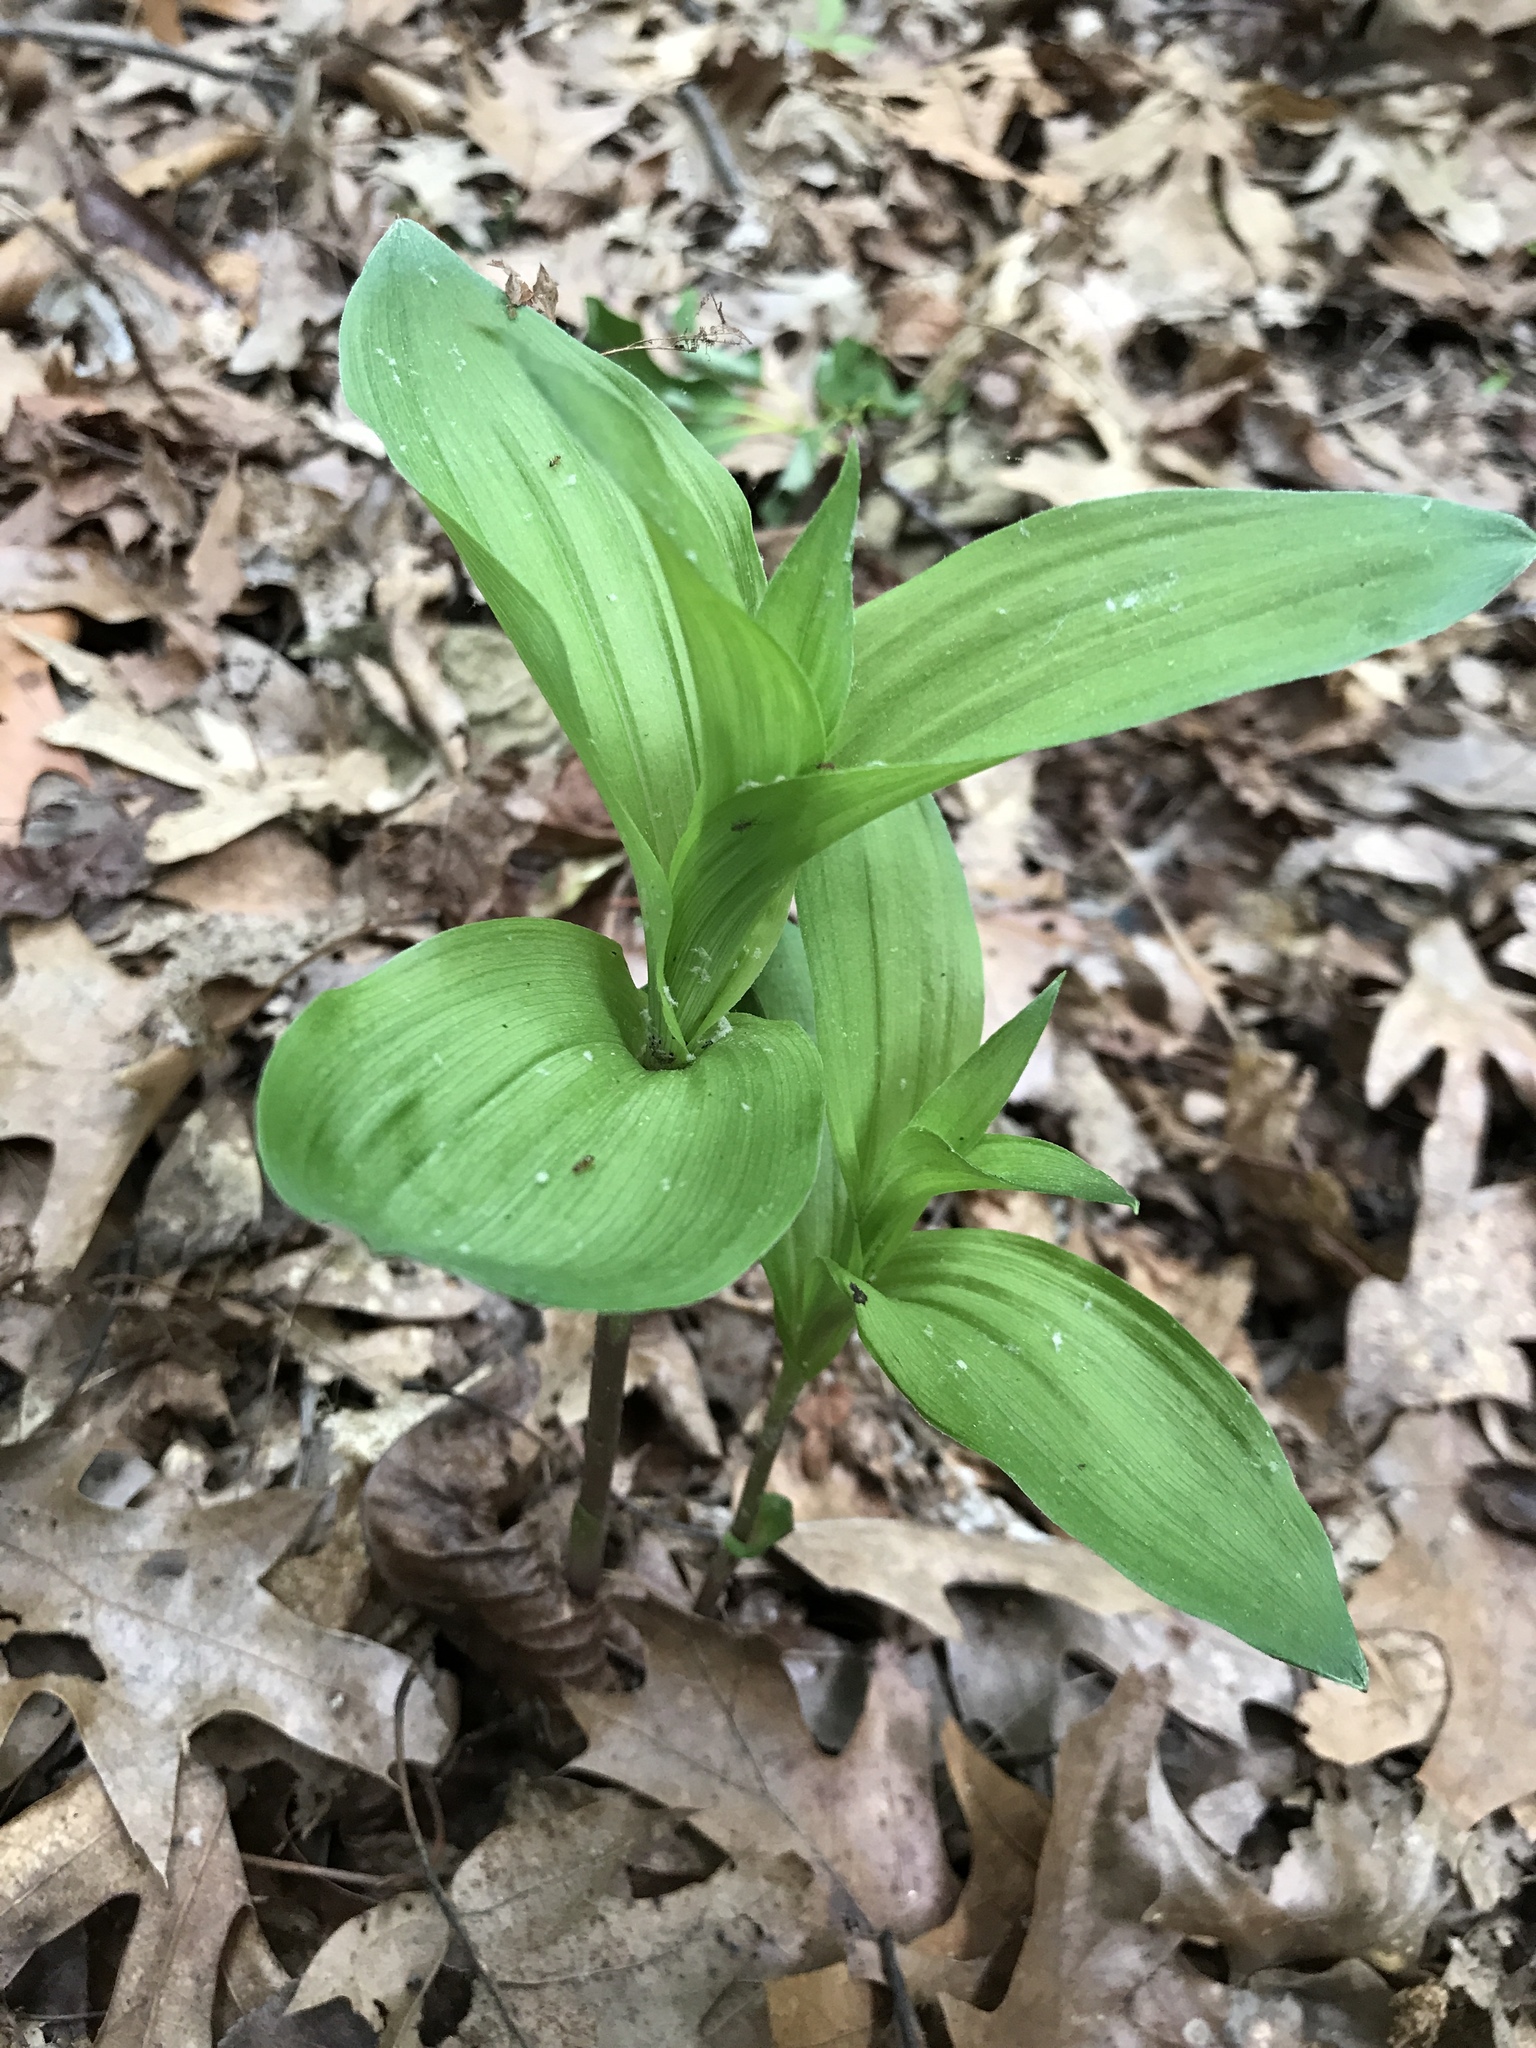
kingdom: Plantae
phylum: Tracheophyta
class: Liliopsida
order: Asparagales
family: Orchidaceae
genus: Epipactis
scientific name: Epipactis helleborine
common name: Broad-leaved helleborine
